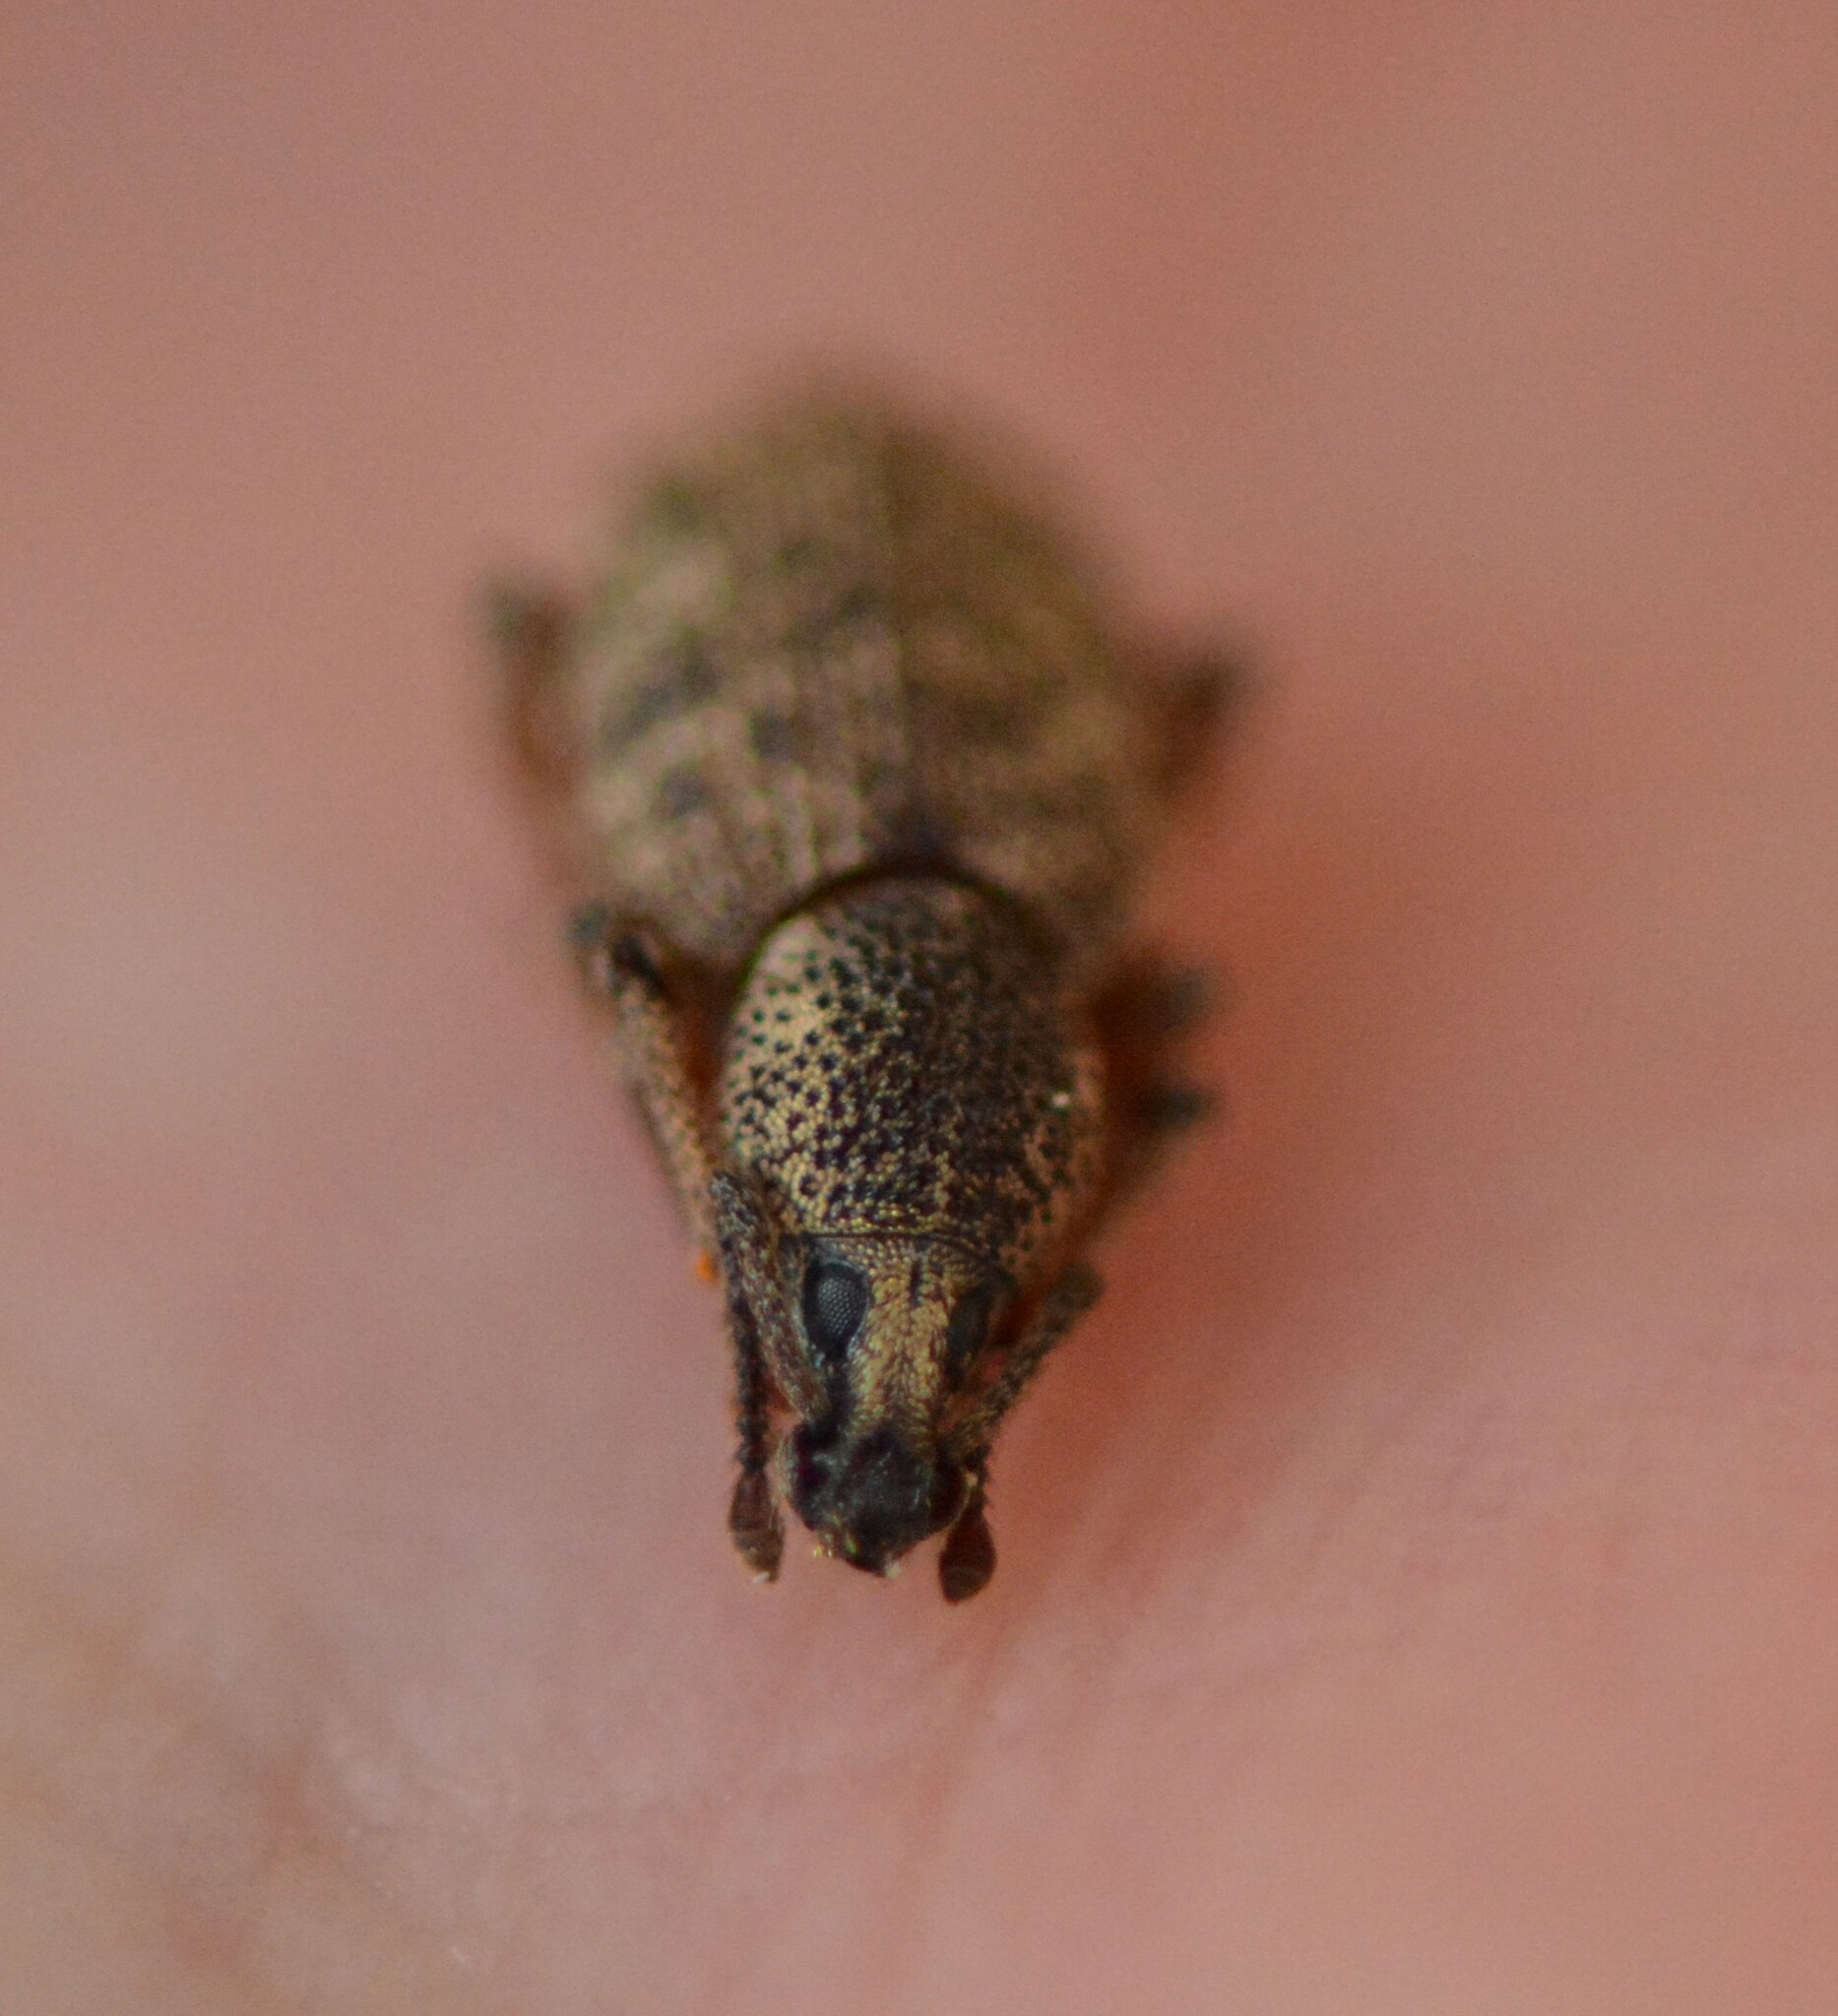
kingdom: Animalia
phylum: Arthropoda
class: Insecta
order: Coleoptera
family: Curculionidae
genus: Otiorhynchus
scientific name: Otiorhynchus singularis
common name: Clay-coloured weevil
